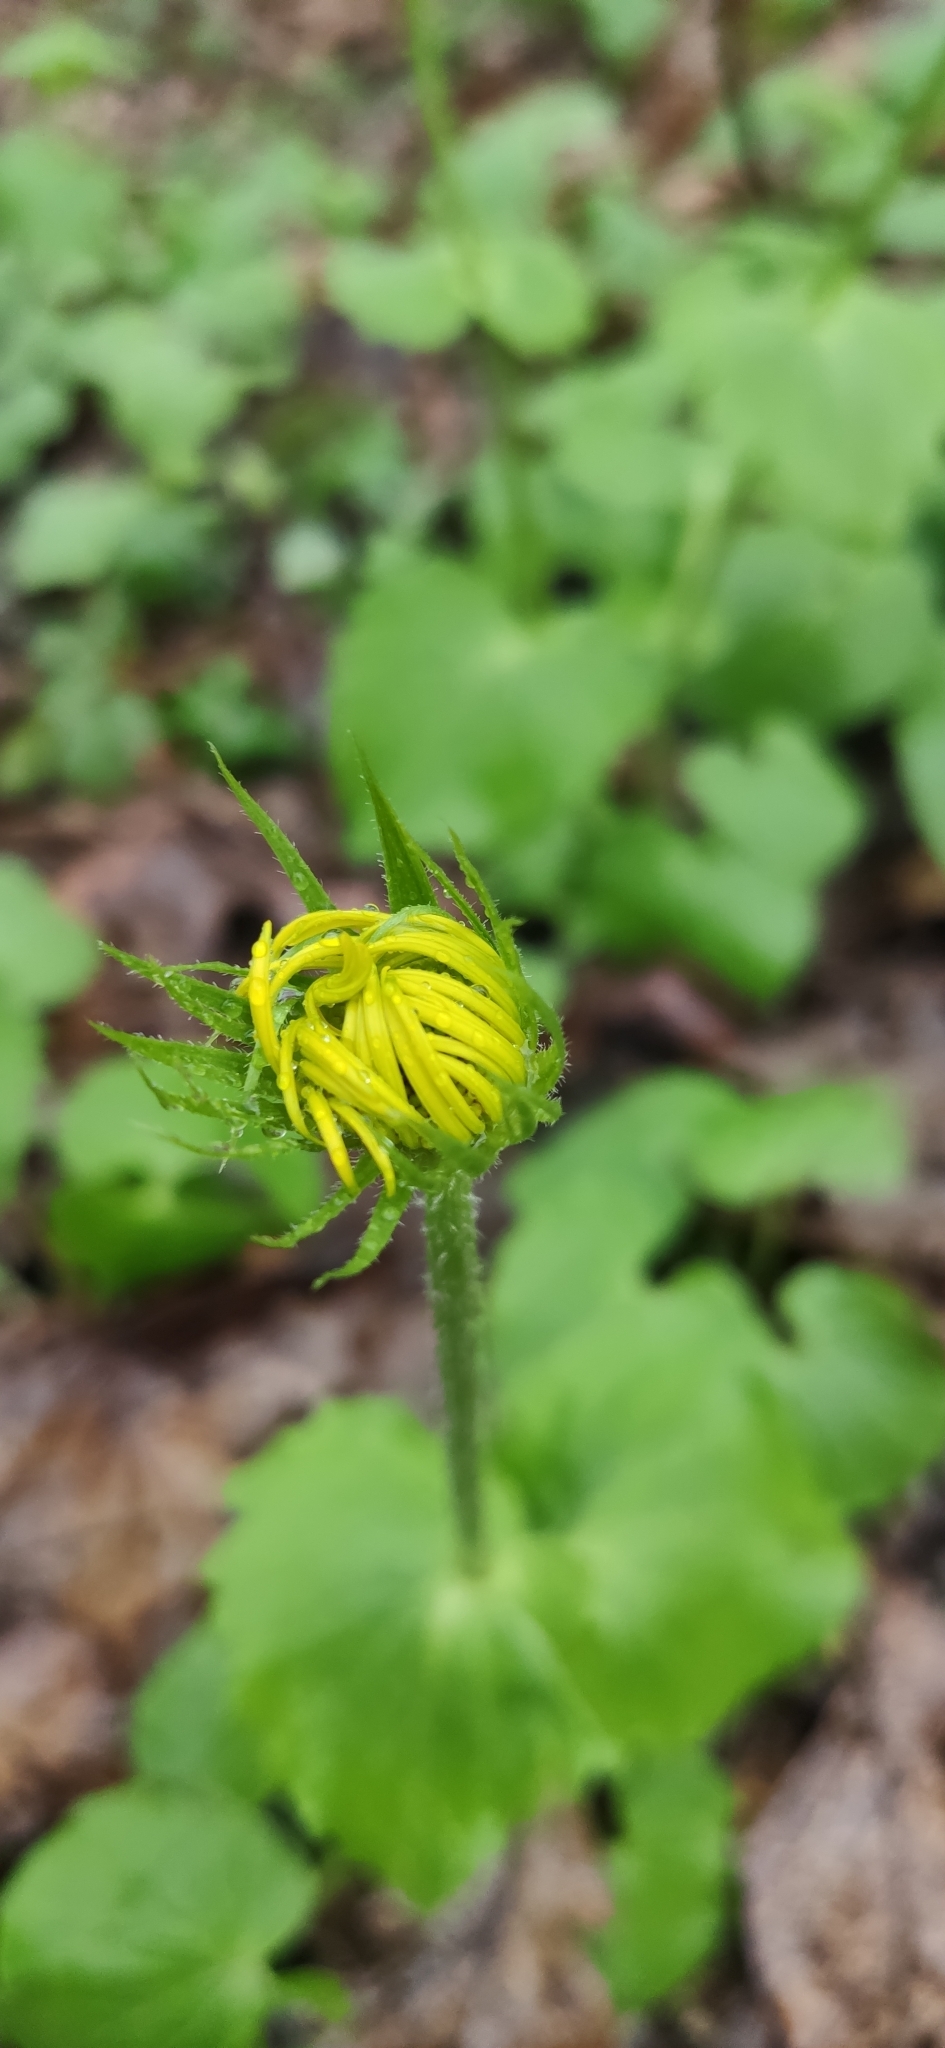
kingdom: Plantae
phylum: Tracheophyta
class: Magnoliopsida
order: Asterales
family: Asteraceae
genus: Doronicum
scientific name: Doronicum
